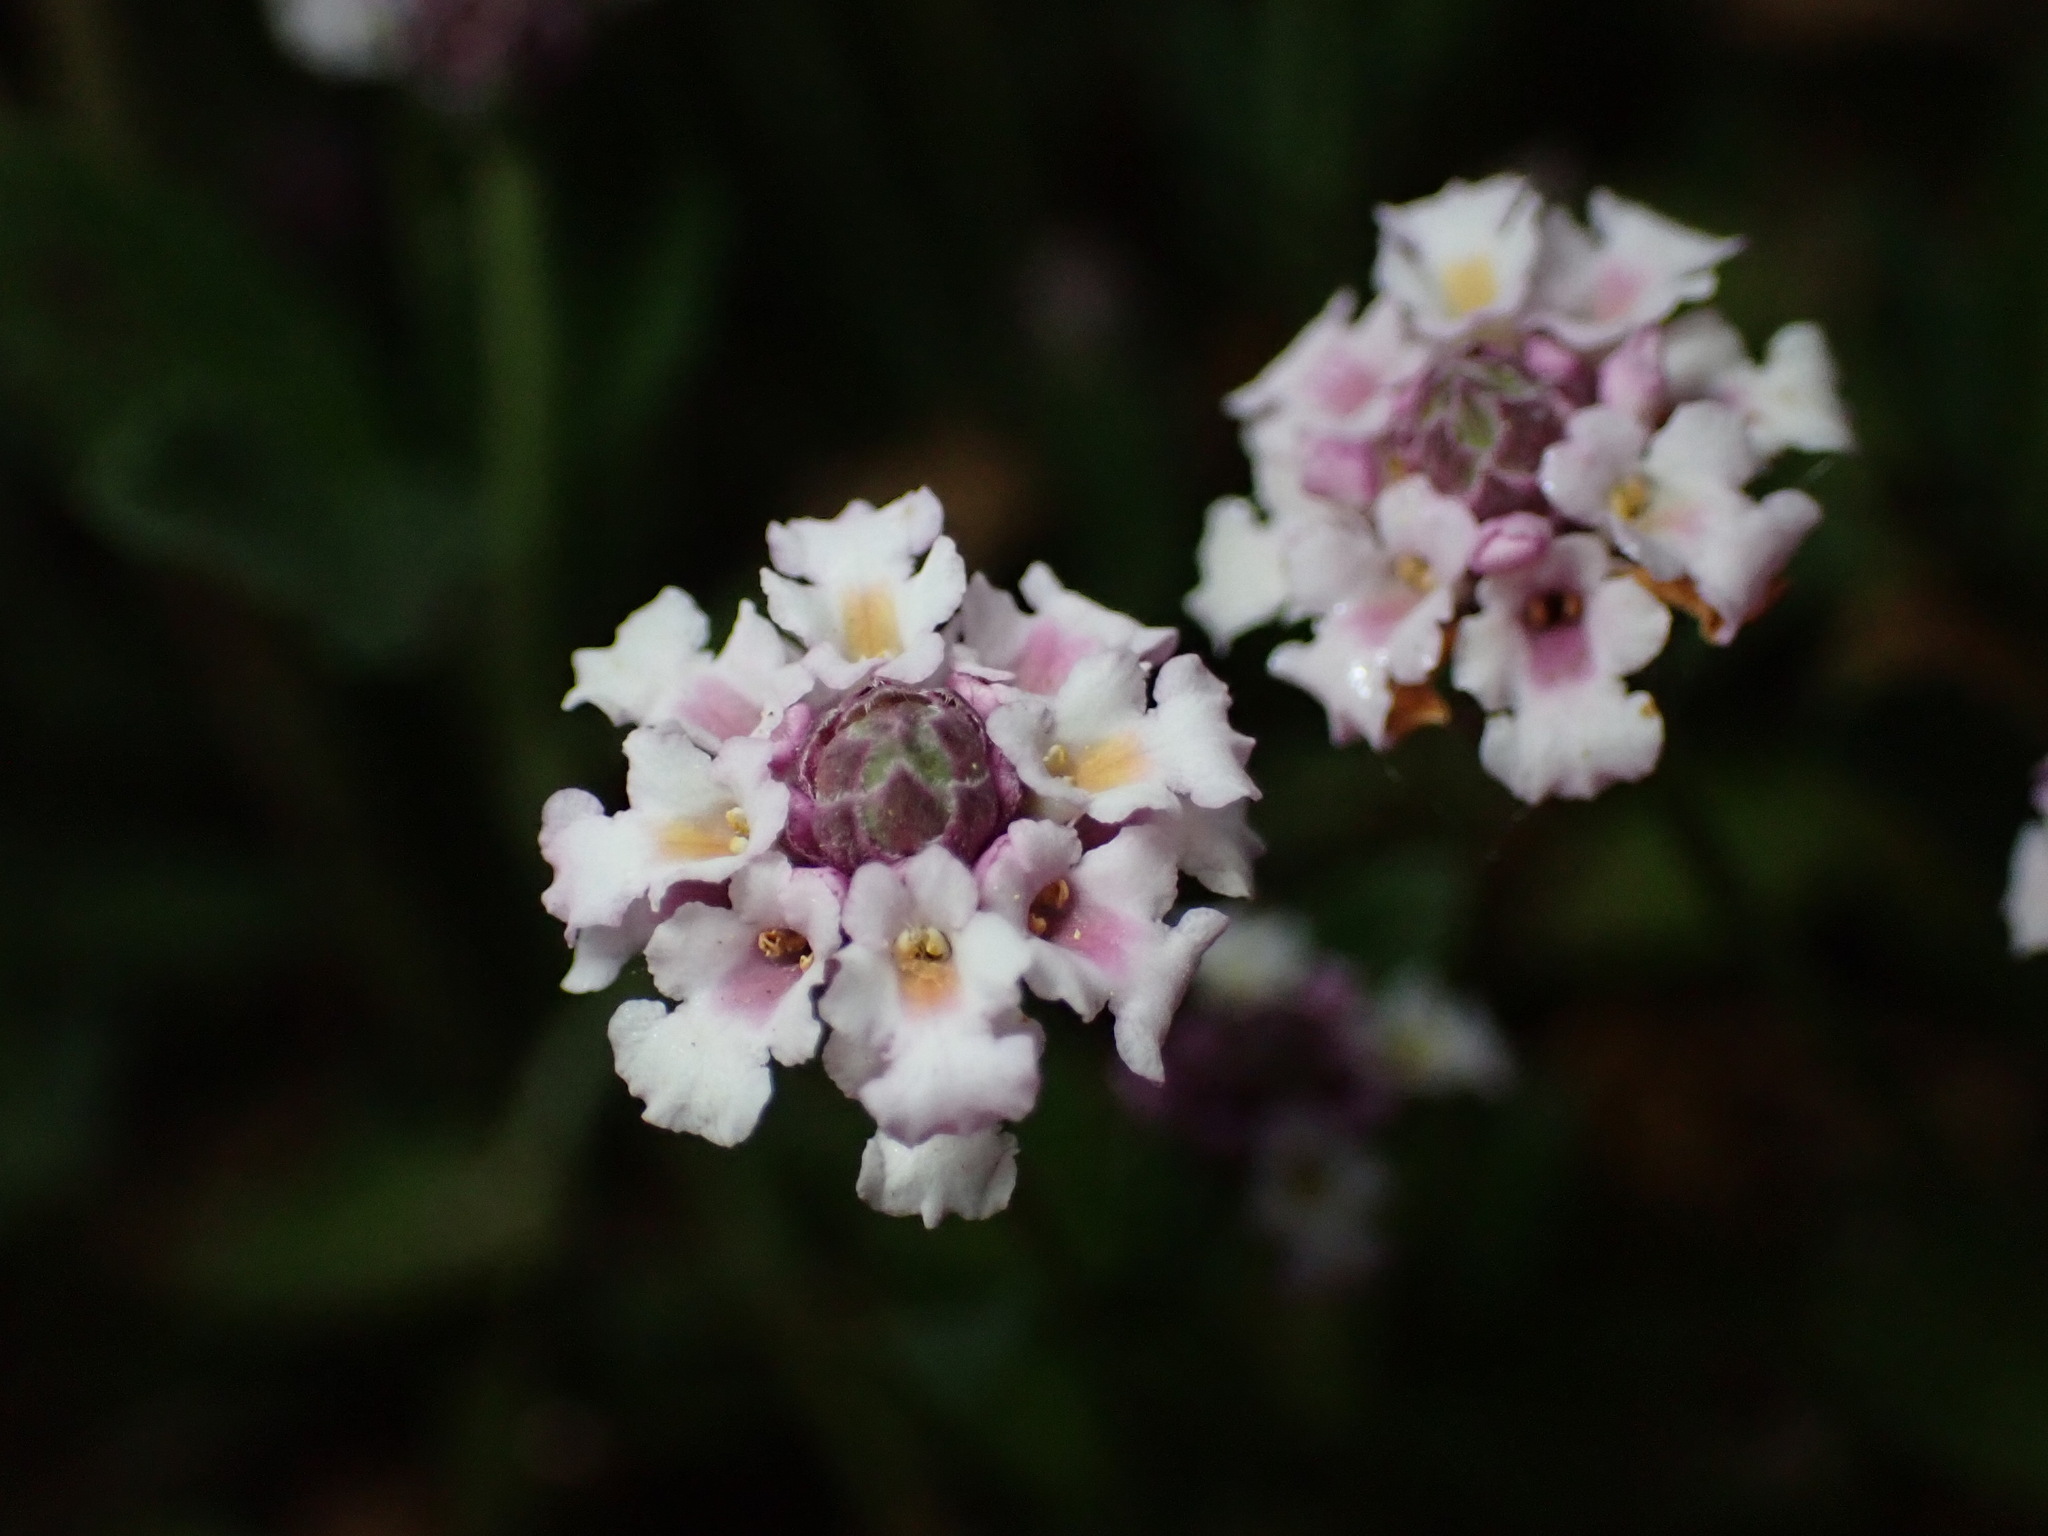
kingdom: Plantae
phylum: Tracheophyta
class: Magnoliopsida
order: Lamiales
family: Verbenaceae
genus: Phyla
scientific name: Phyla nodiflora
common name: Frogfruit
